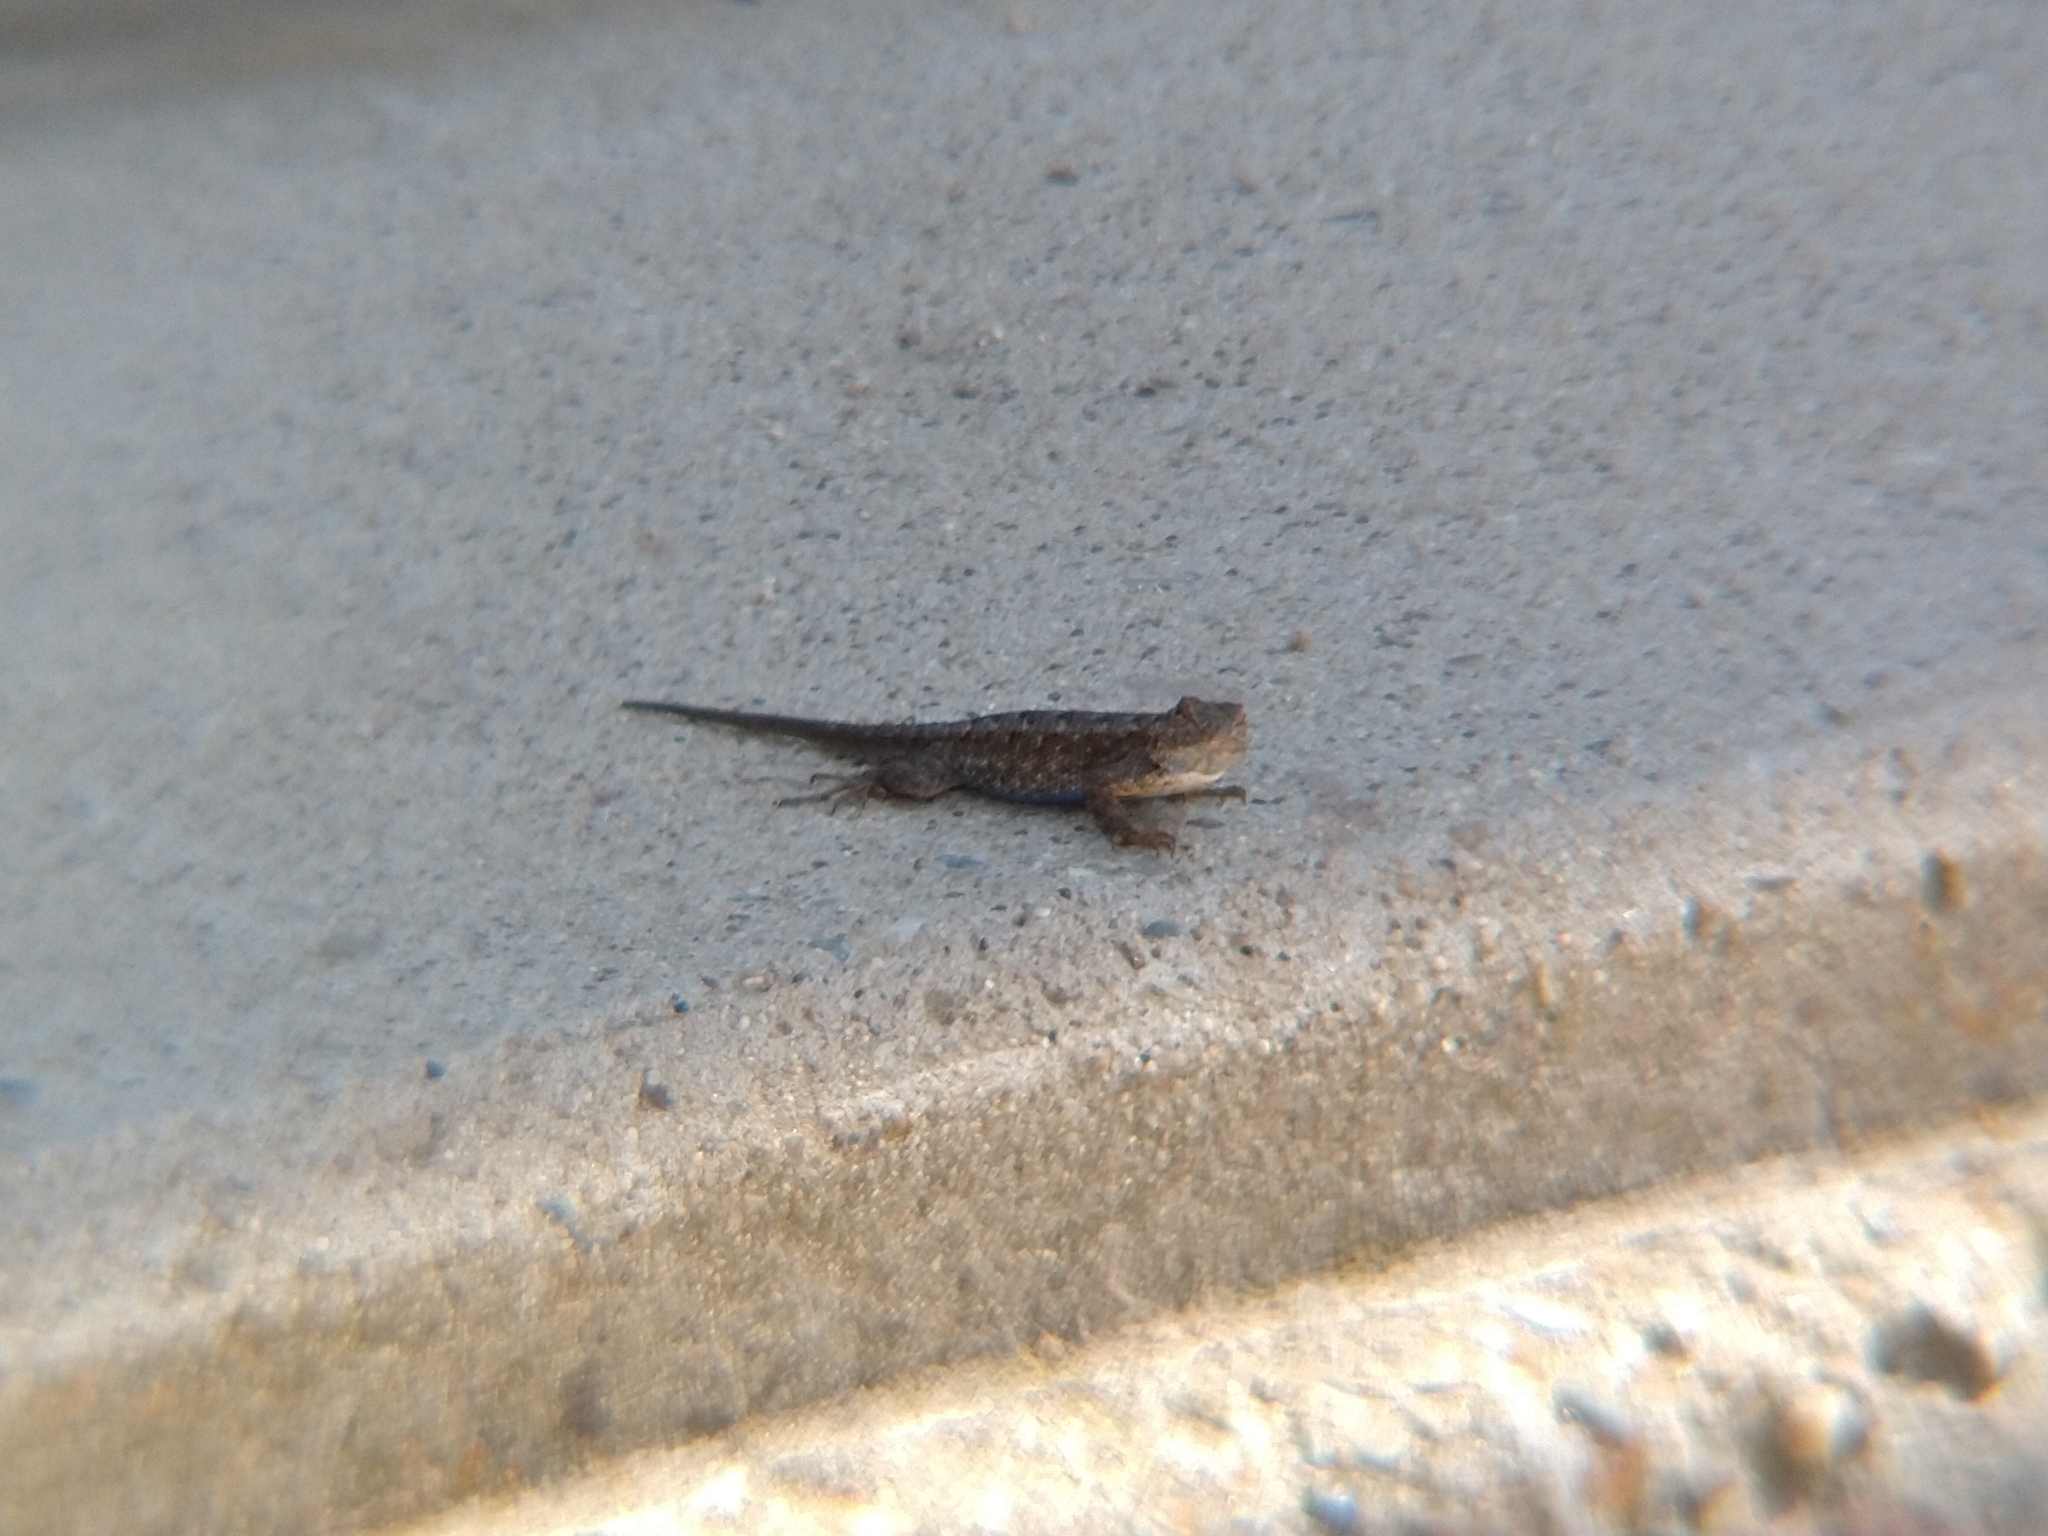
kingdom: Animalia
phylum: Chordata
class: Squamata
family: Phrynosomatidae
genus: Sceloporus
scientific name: Sceloporus occidentalis
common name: Western fence lizard
